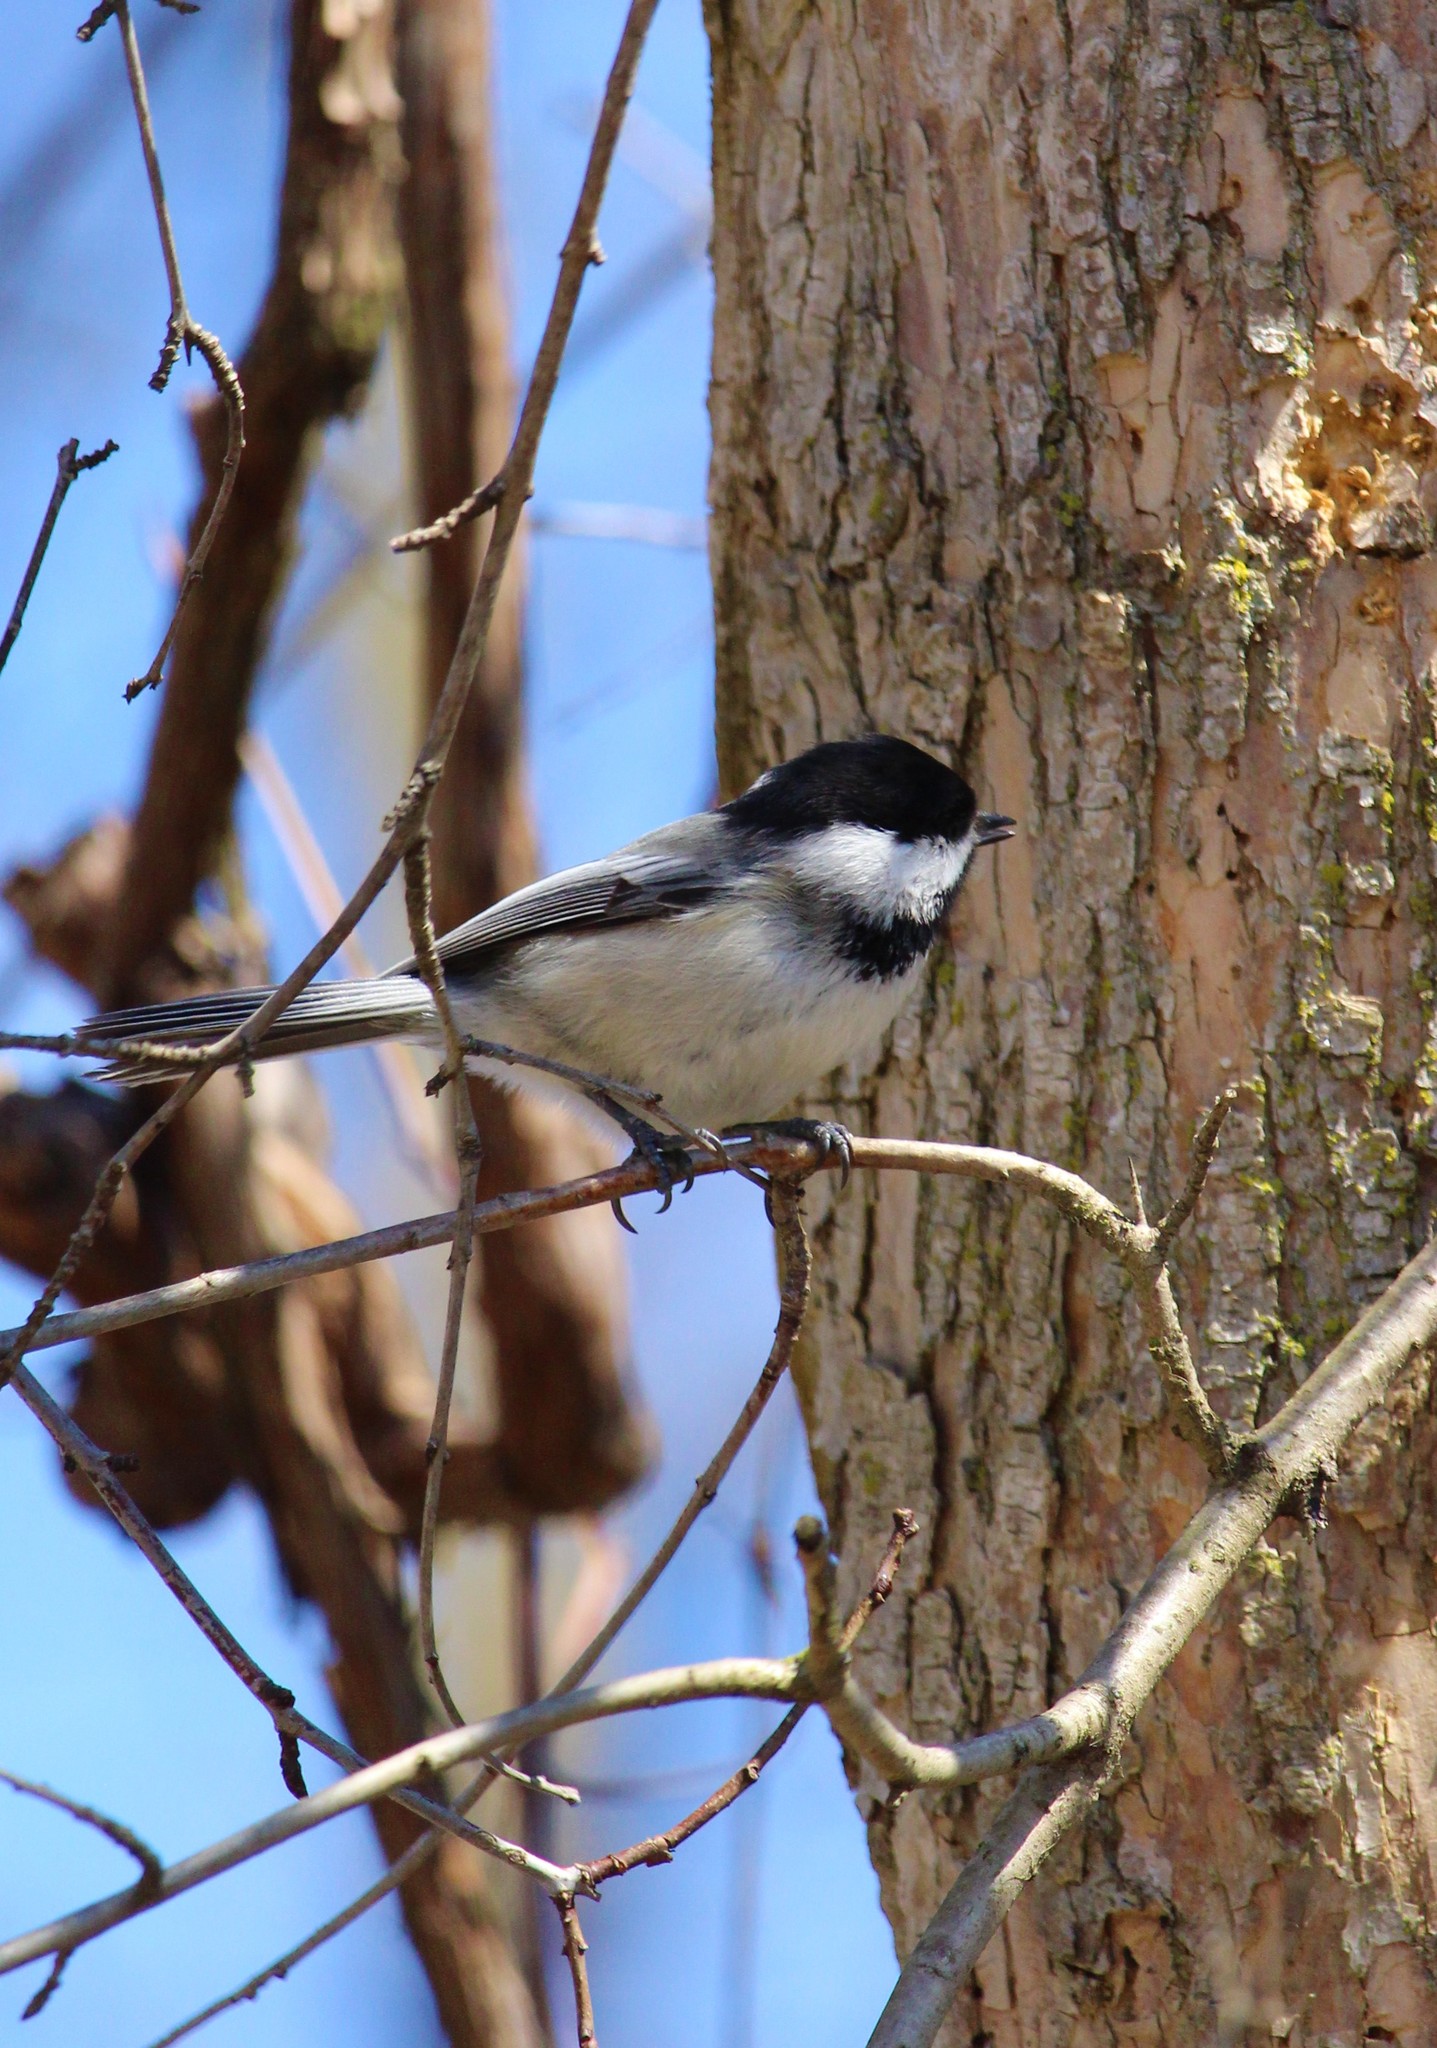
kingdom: Animalia
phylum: Chordata
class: Aves
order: Passeriformes
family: Paridae
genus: Poecile
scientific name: Poecile atricapillus
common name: Black-capped chickadee
